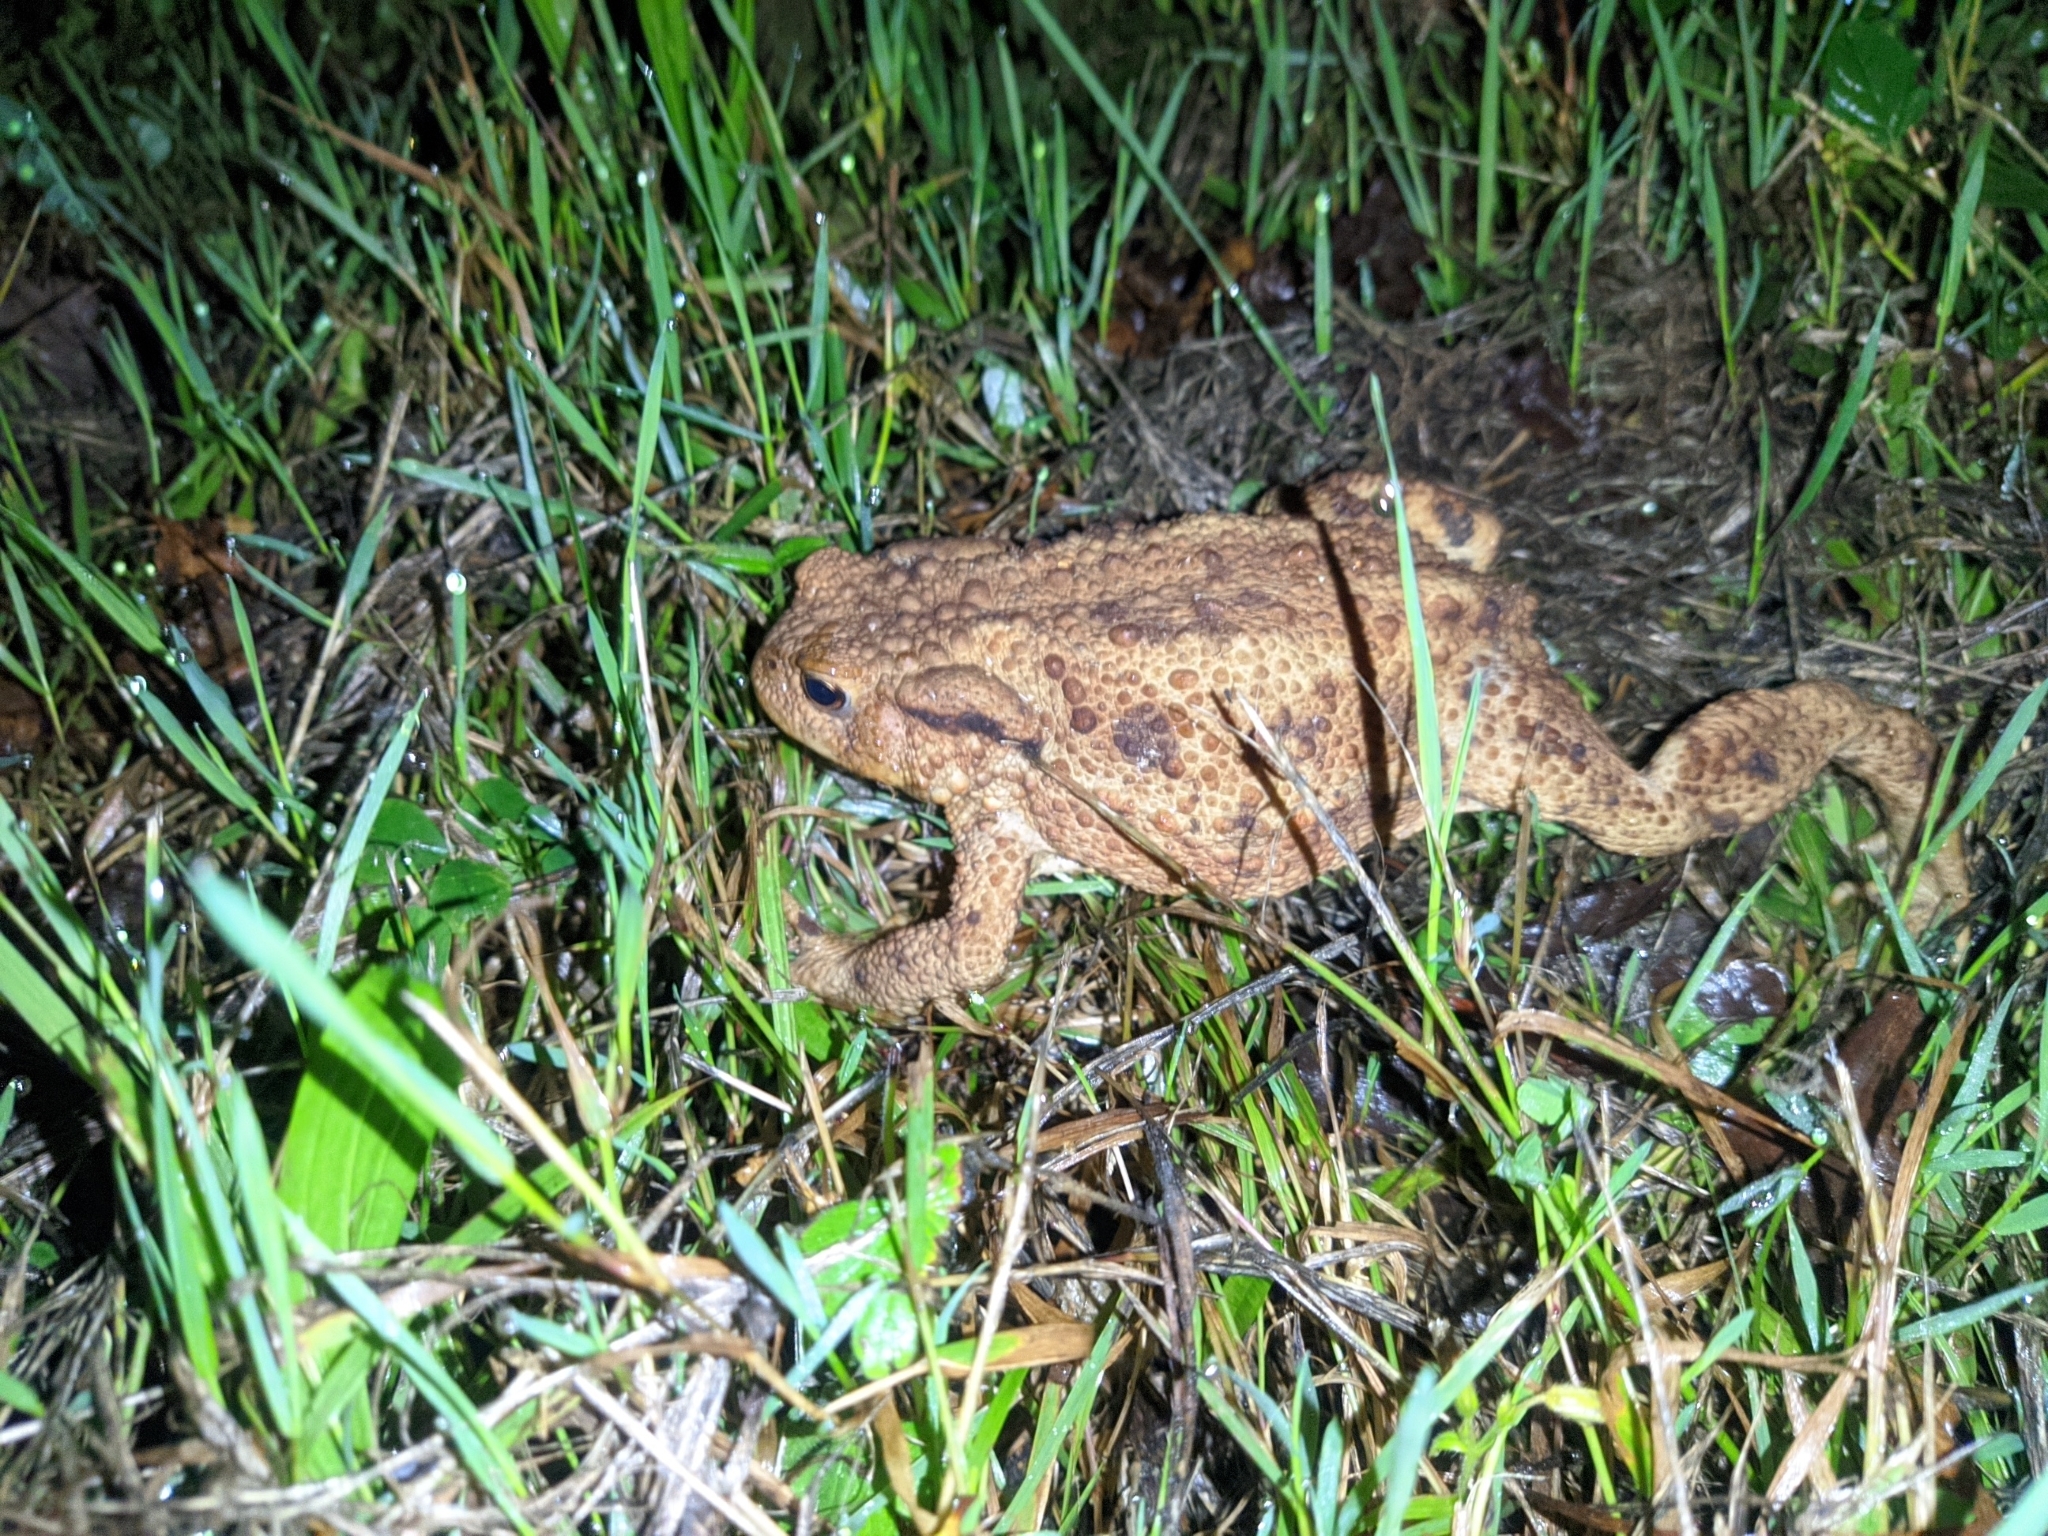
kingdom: Animalia
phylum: Chordata
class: Amphibia
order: Anura
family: Bufonidae
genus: Bufo
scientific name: Bufo bufo
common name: Common toad
